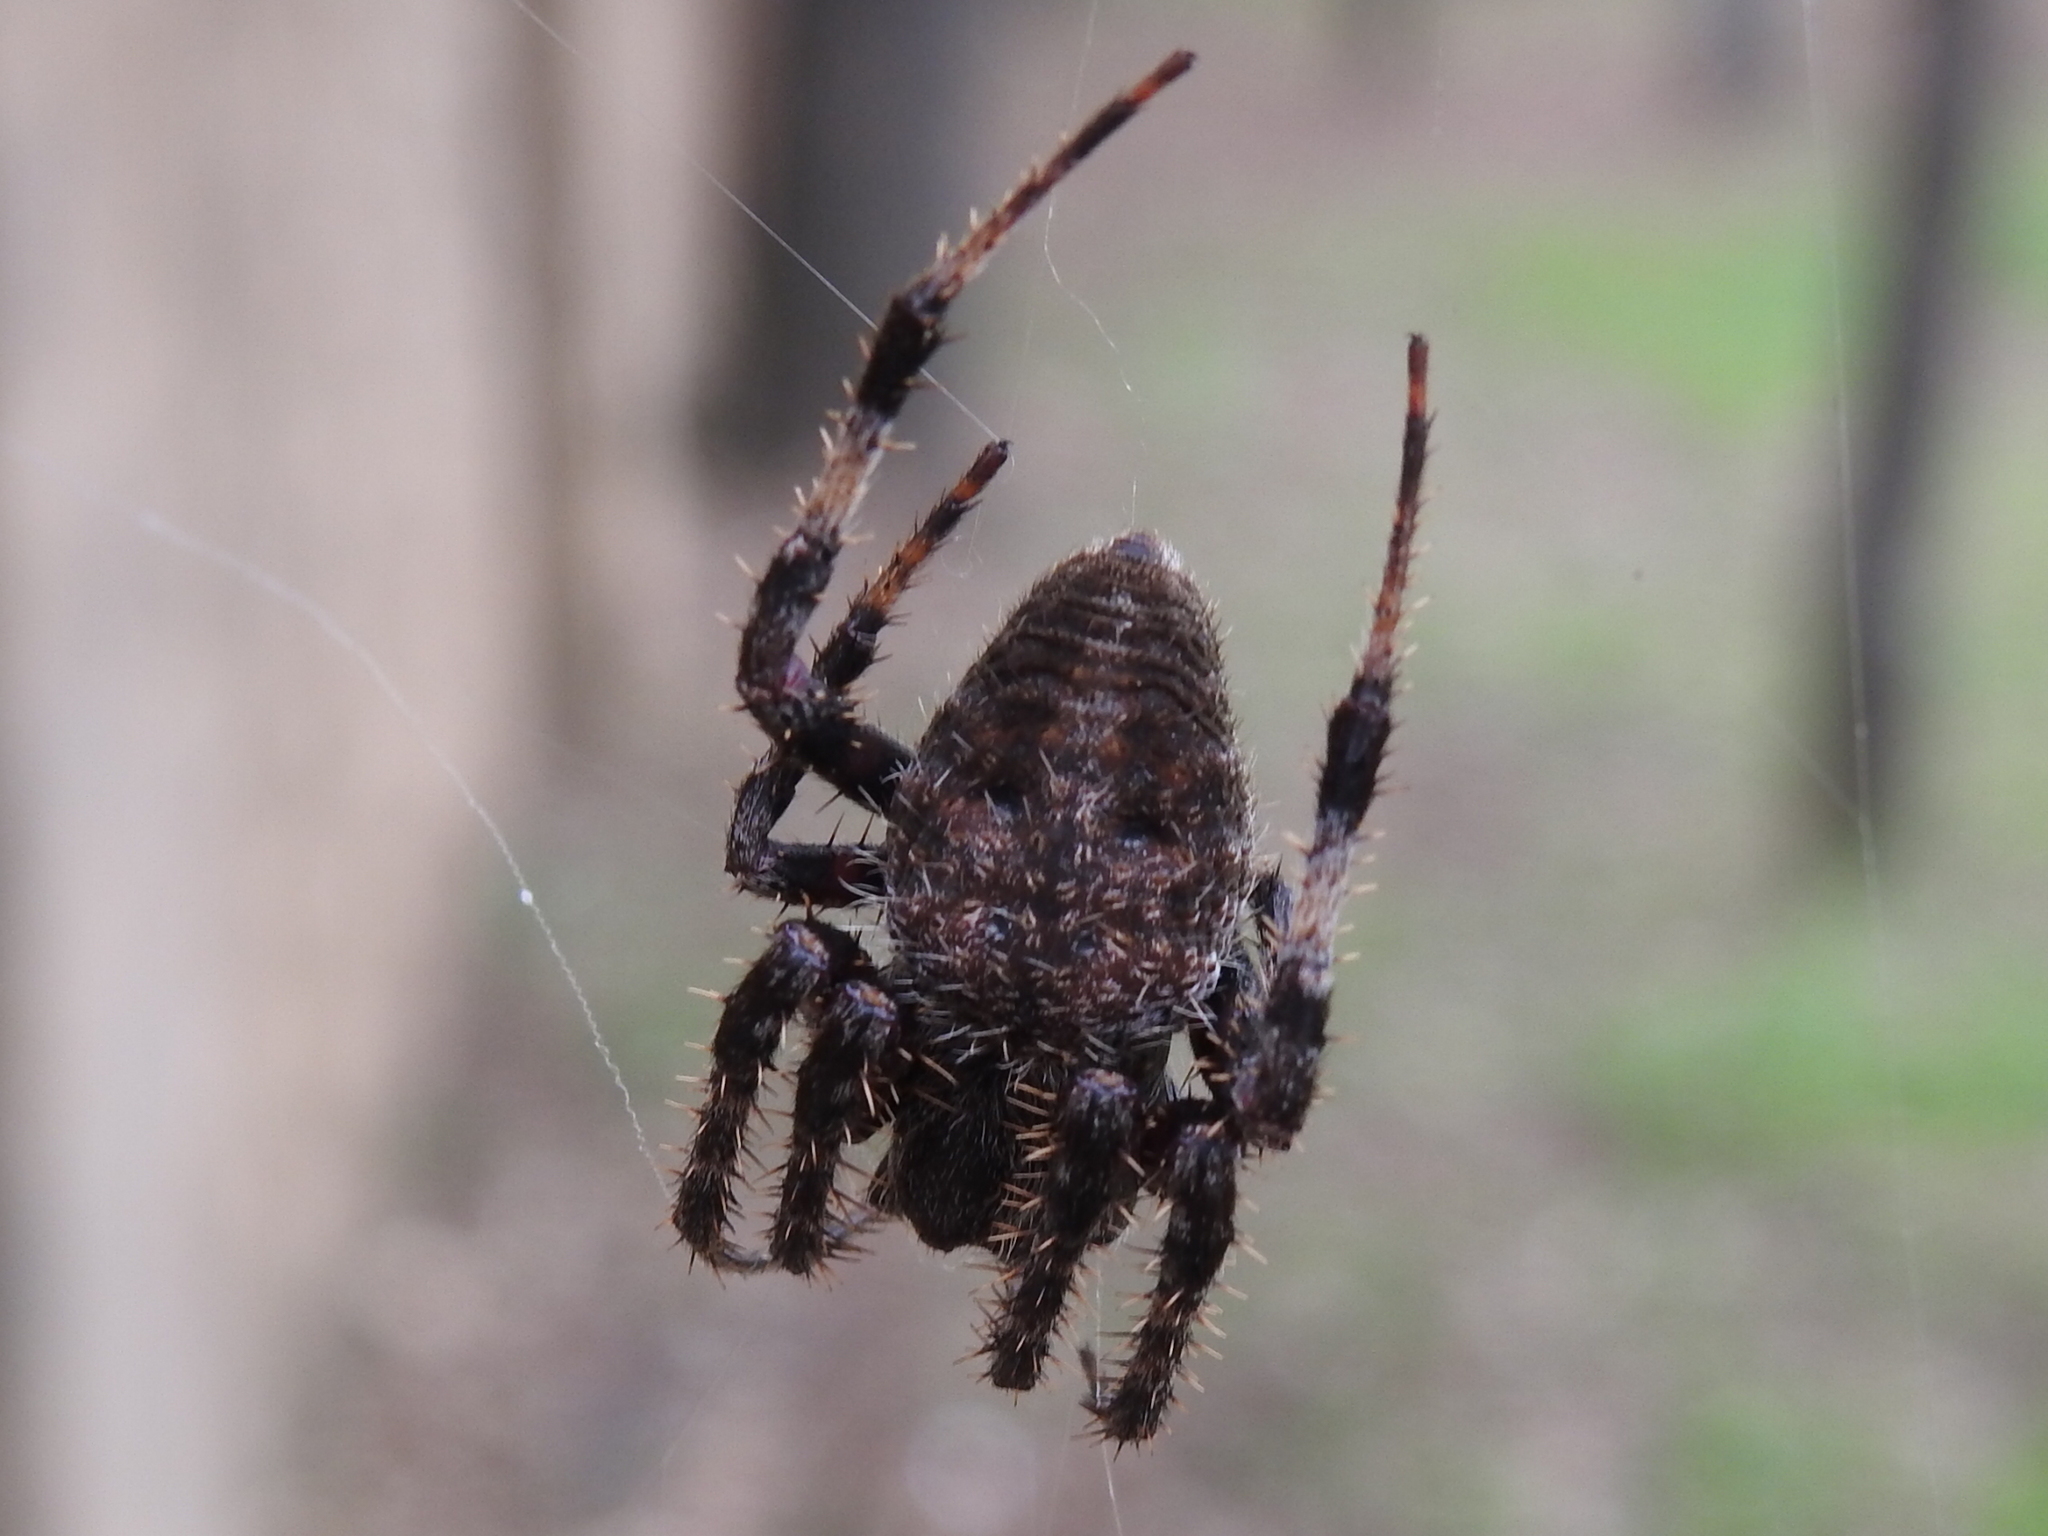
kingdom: Animalia
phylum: Arthropoda
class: Arachnida
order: Araneae
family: Araneidae
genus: Neoscona
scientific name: Neoscona crucifera
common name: Spotted orbweaver
